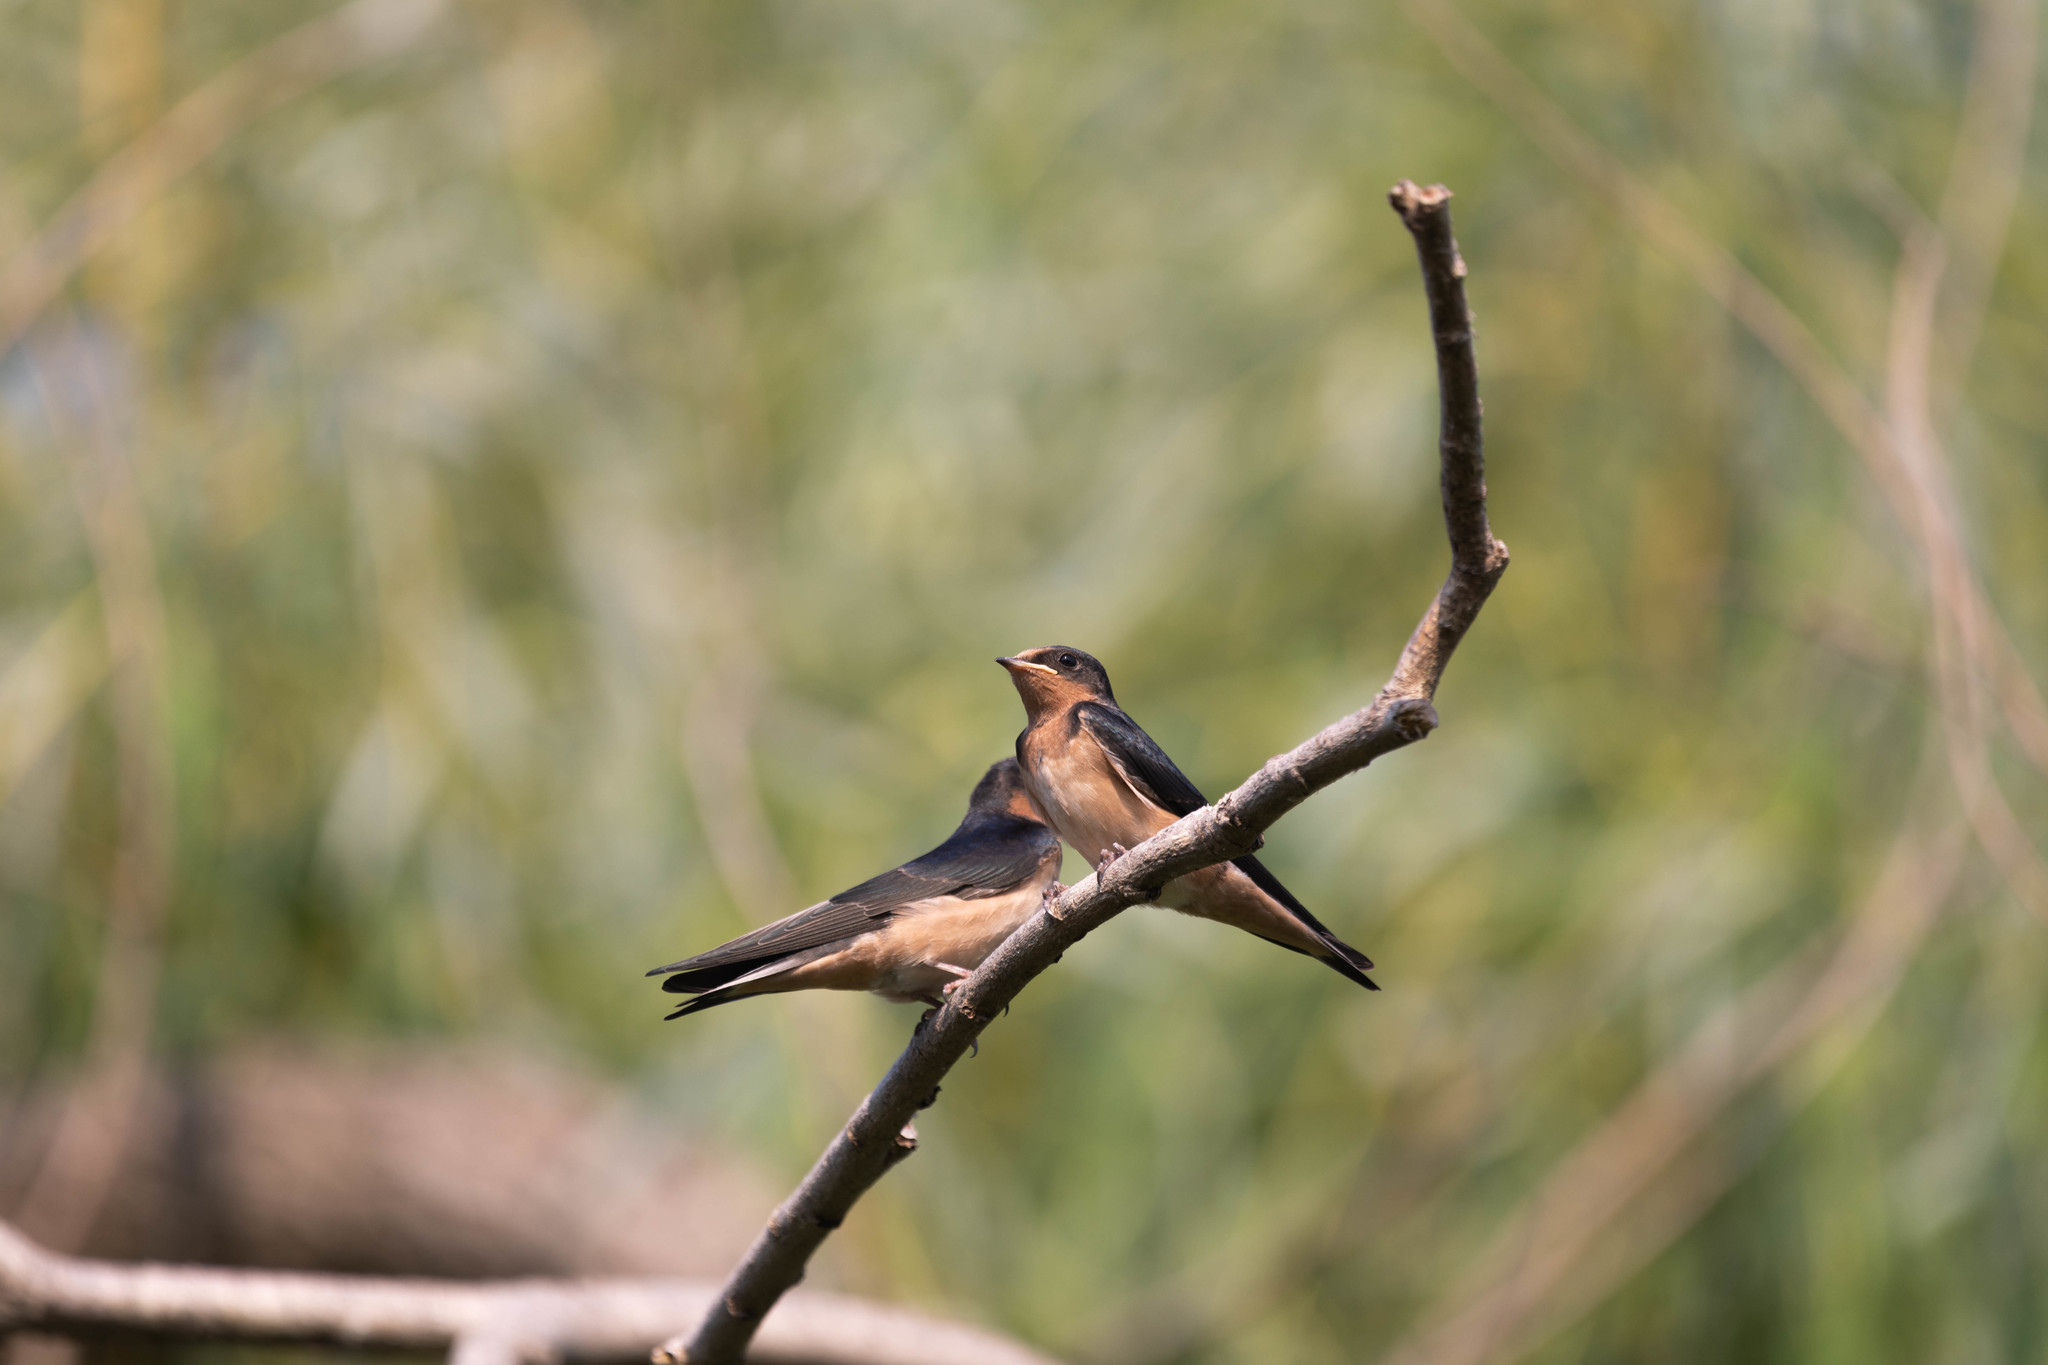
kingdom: Animalia
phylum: Chordata
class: Aves
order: Passeriformes
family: Hirundinidae
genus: Hirundo
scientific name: Hirundo rustica
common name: Barn swallow
